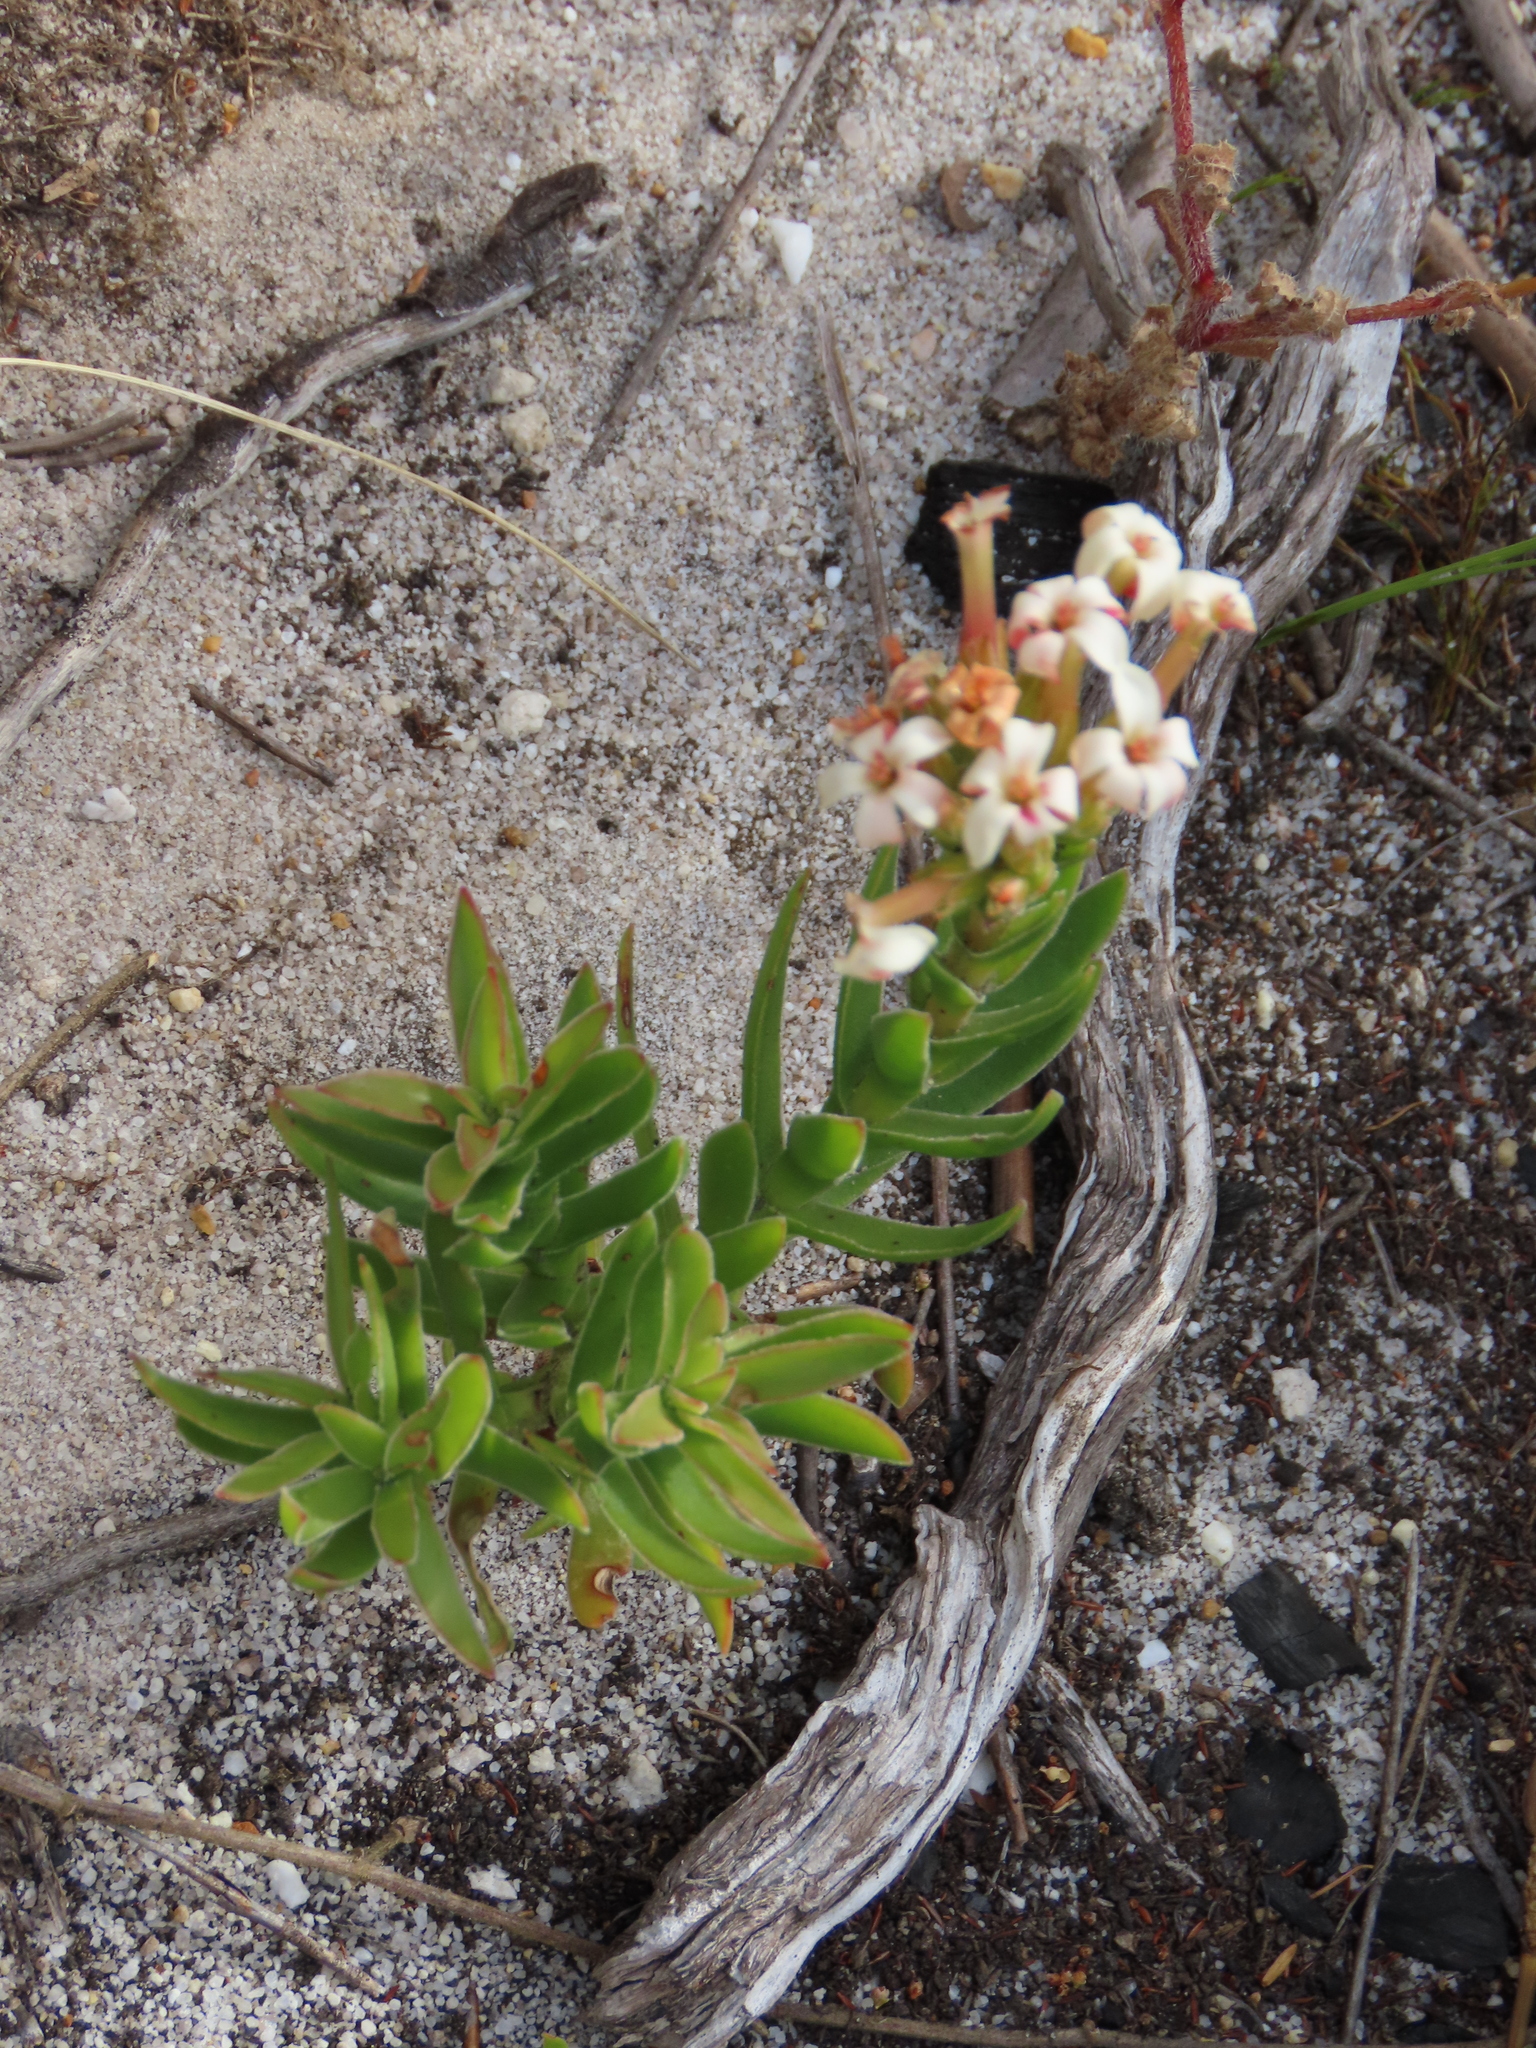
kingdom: Plantae
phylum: Tracheophyta
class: Magnoliopsida
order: Saxifragales
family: Crassulaceae
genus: Crassula
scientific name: Crassula fascicularis
